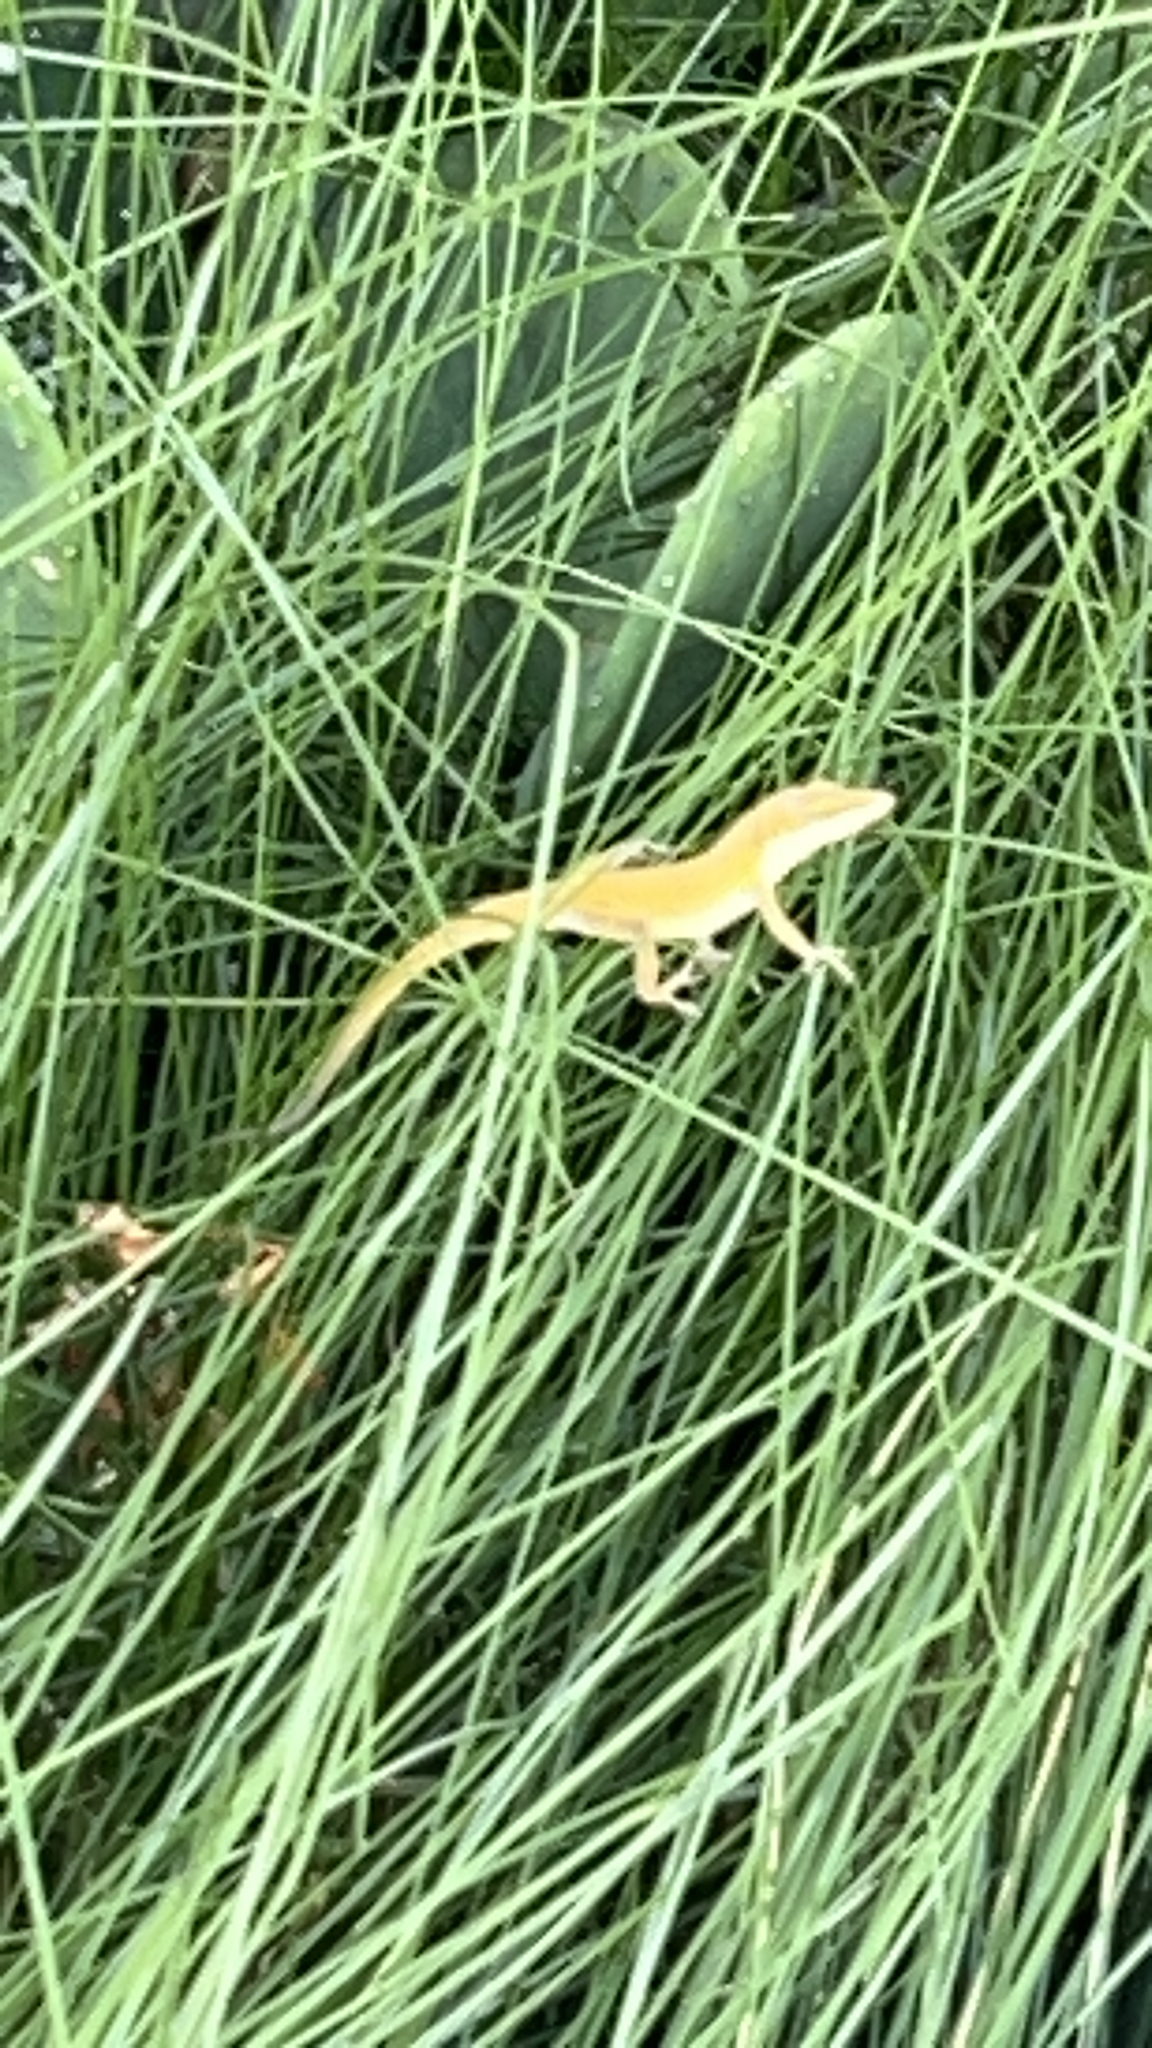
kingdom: Animalia
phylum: Chordata
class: Squamata
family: Dactyloidae
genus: Anolis
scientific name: Anolis carolinensis
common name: Green anole
